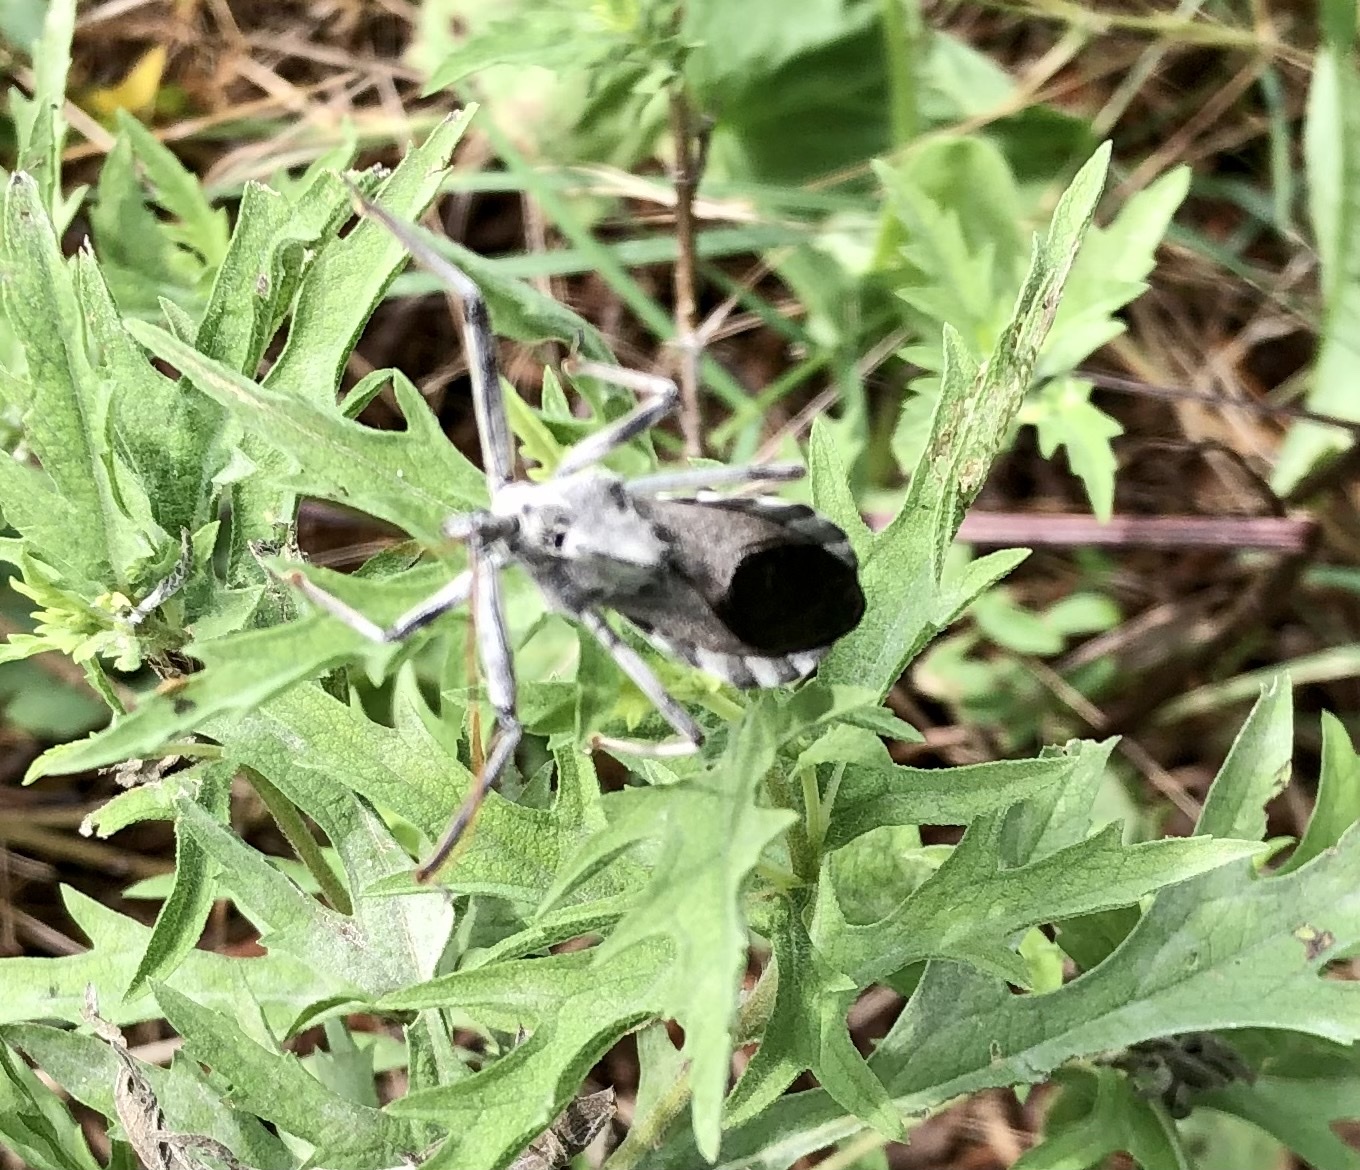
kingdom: Animalia
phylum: Arthropoda
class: Insecta
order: Hemiptera
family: Reduviidae
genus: Arilus
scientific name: Arilus cristatus
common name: North american wheel bug
